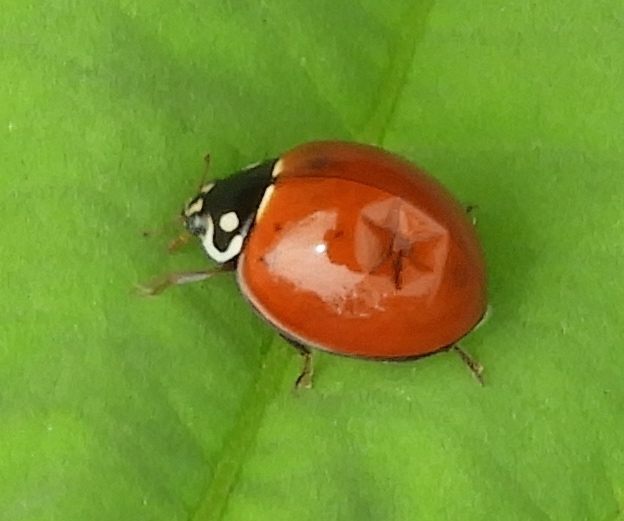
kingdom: Animalia
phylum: Arthropoda
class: Insecta
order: Coleoptera
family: Coccinellidae
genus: Cycloneda
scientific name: Cycloneda sanguinea
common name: Ladybird beetle
